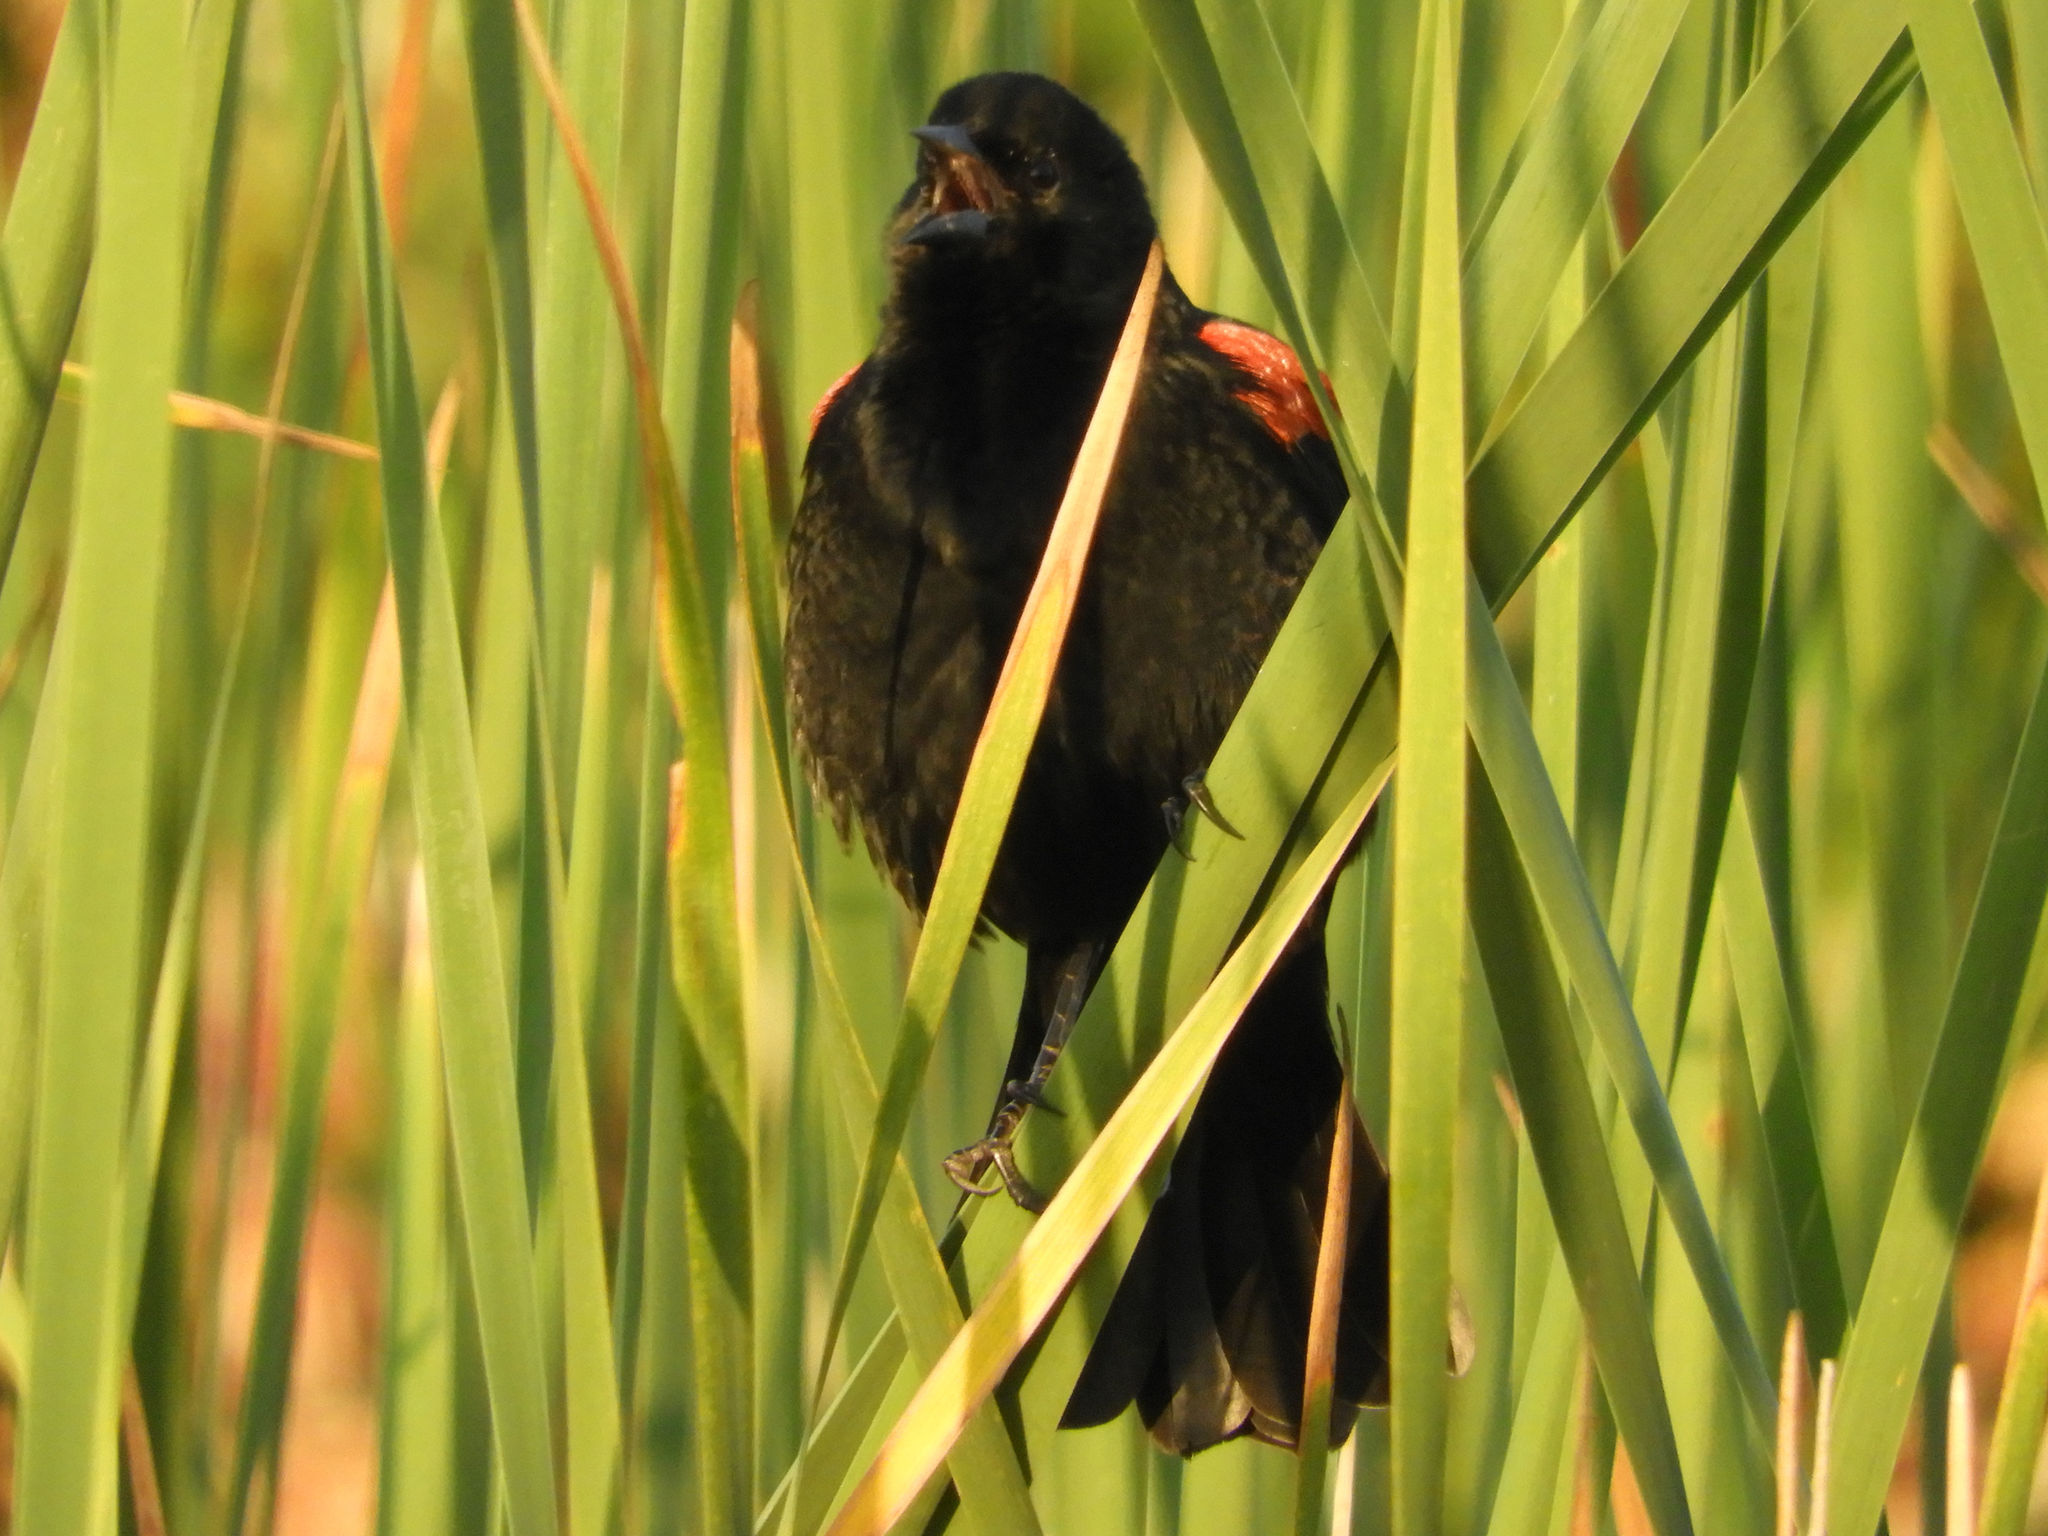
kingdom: Animalia
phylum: Chordata
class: Aves
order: Passeriformes
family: Icteridae
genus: Agelaius
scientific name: Agelaius phoeniceus
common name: Red-winged blackbird
